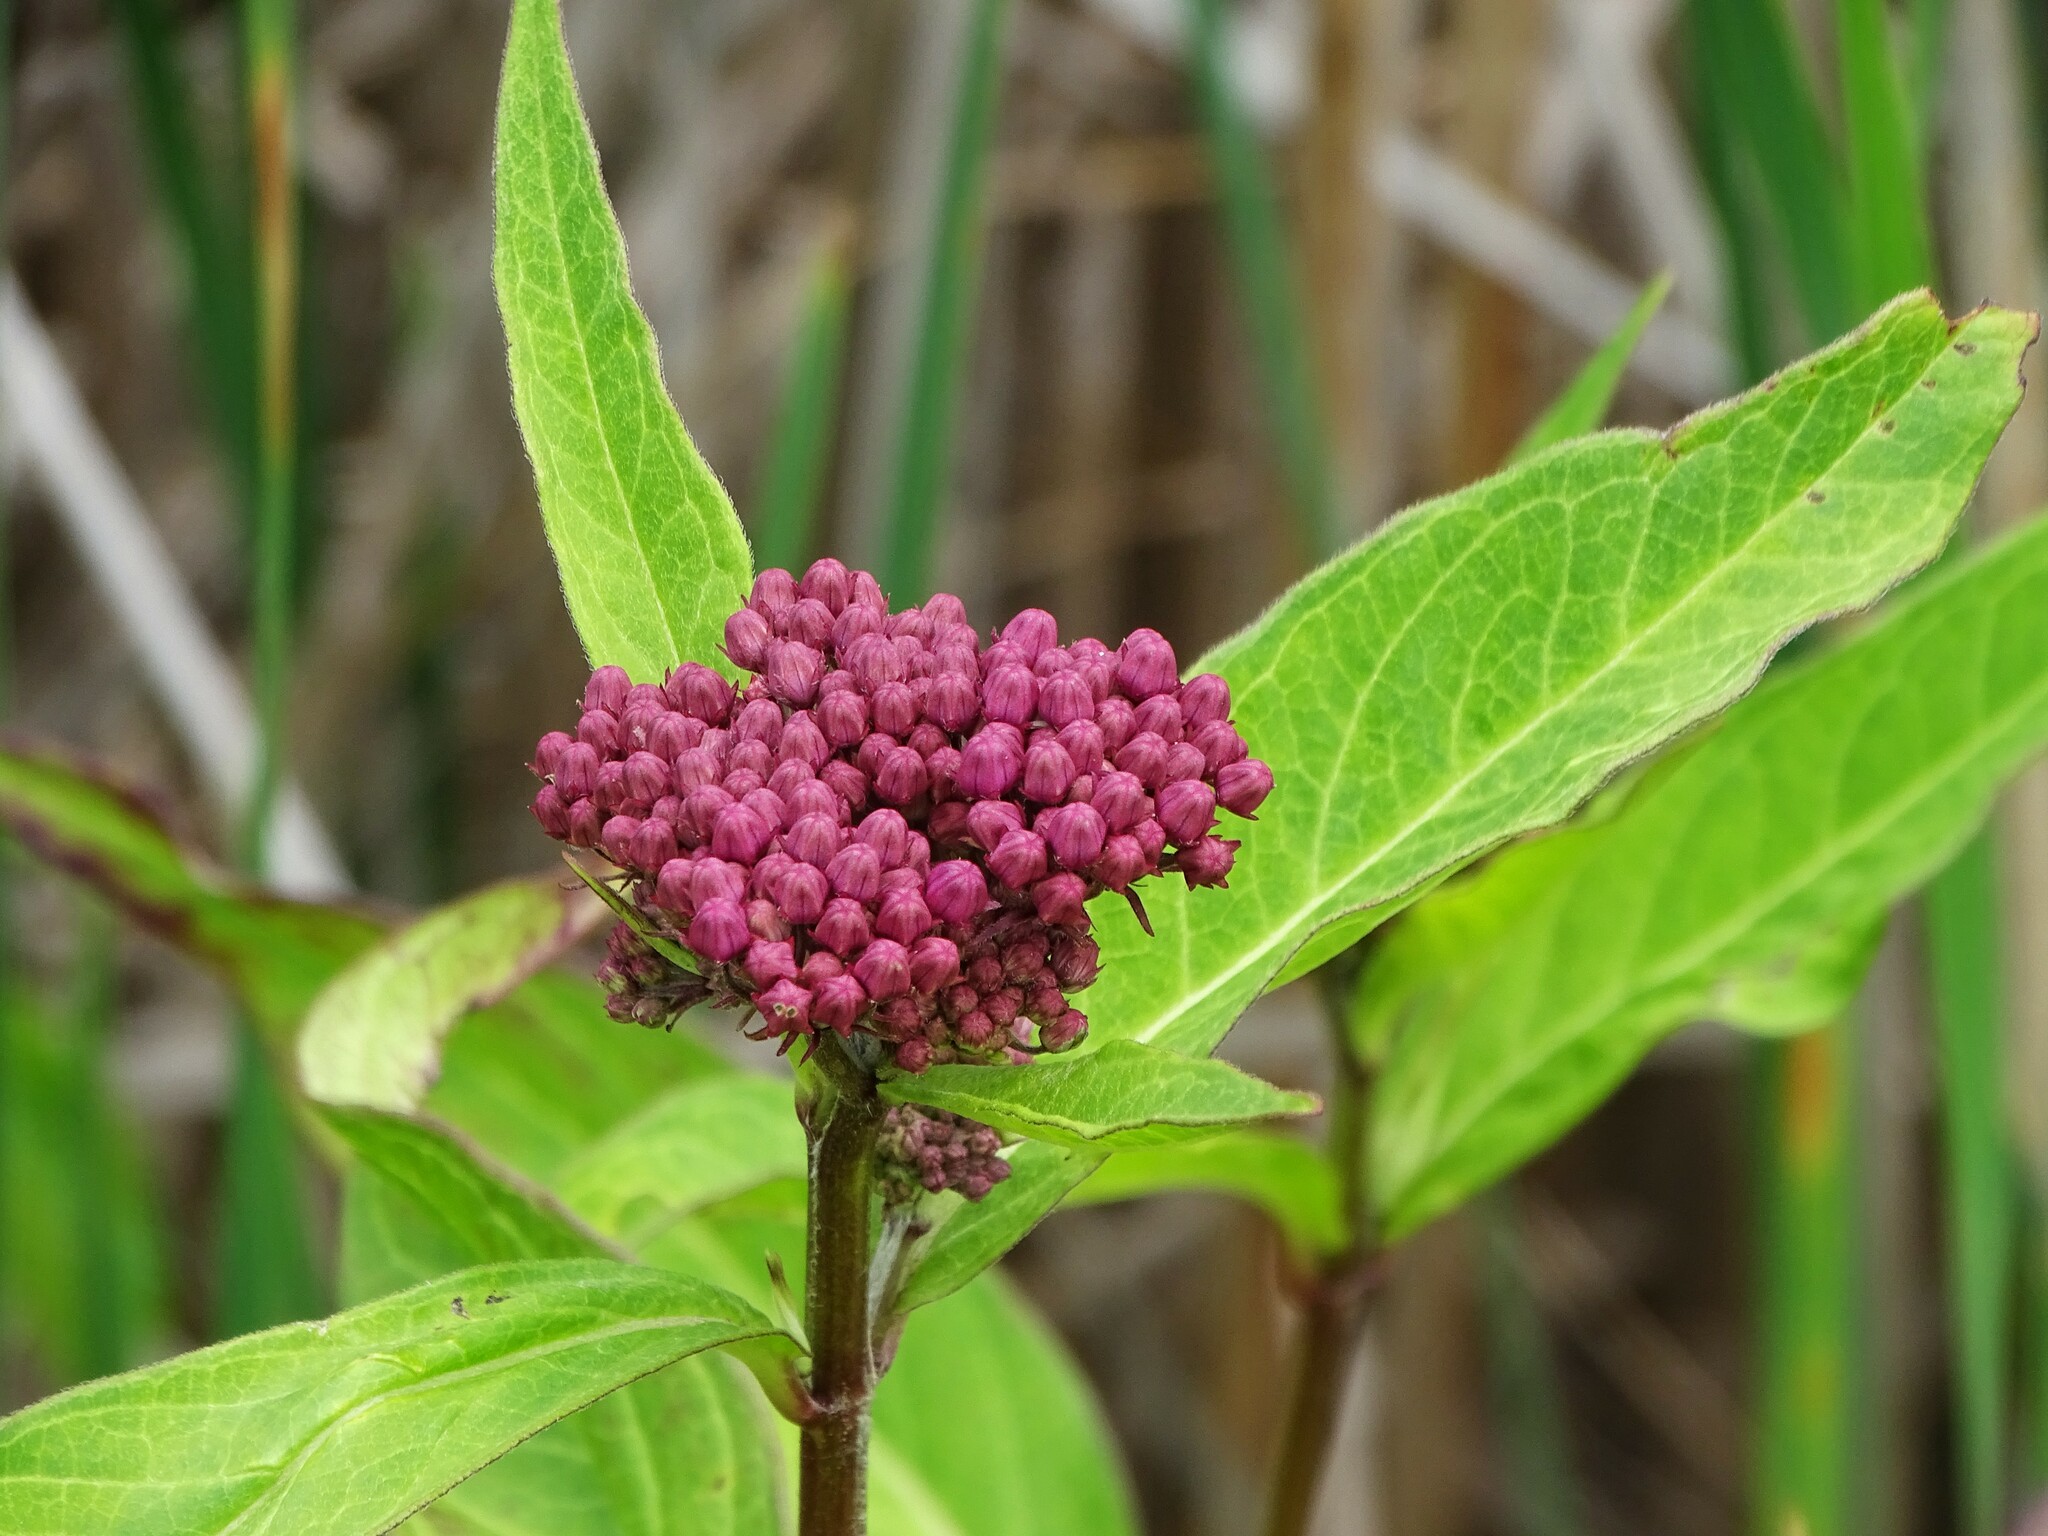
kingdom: Plantae
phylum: Tracheophyta
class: Magnoliopsida
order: Gentianales
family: Apocynaceae
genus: Asclepias
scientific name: Asclepias incarnata
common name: Swamp milkweed
